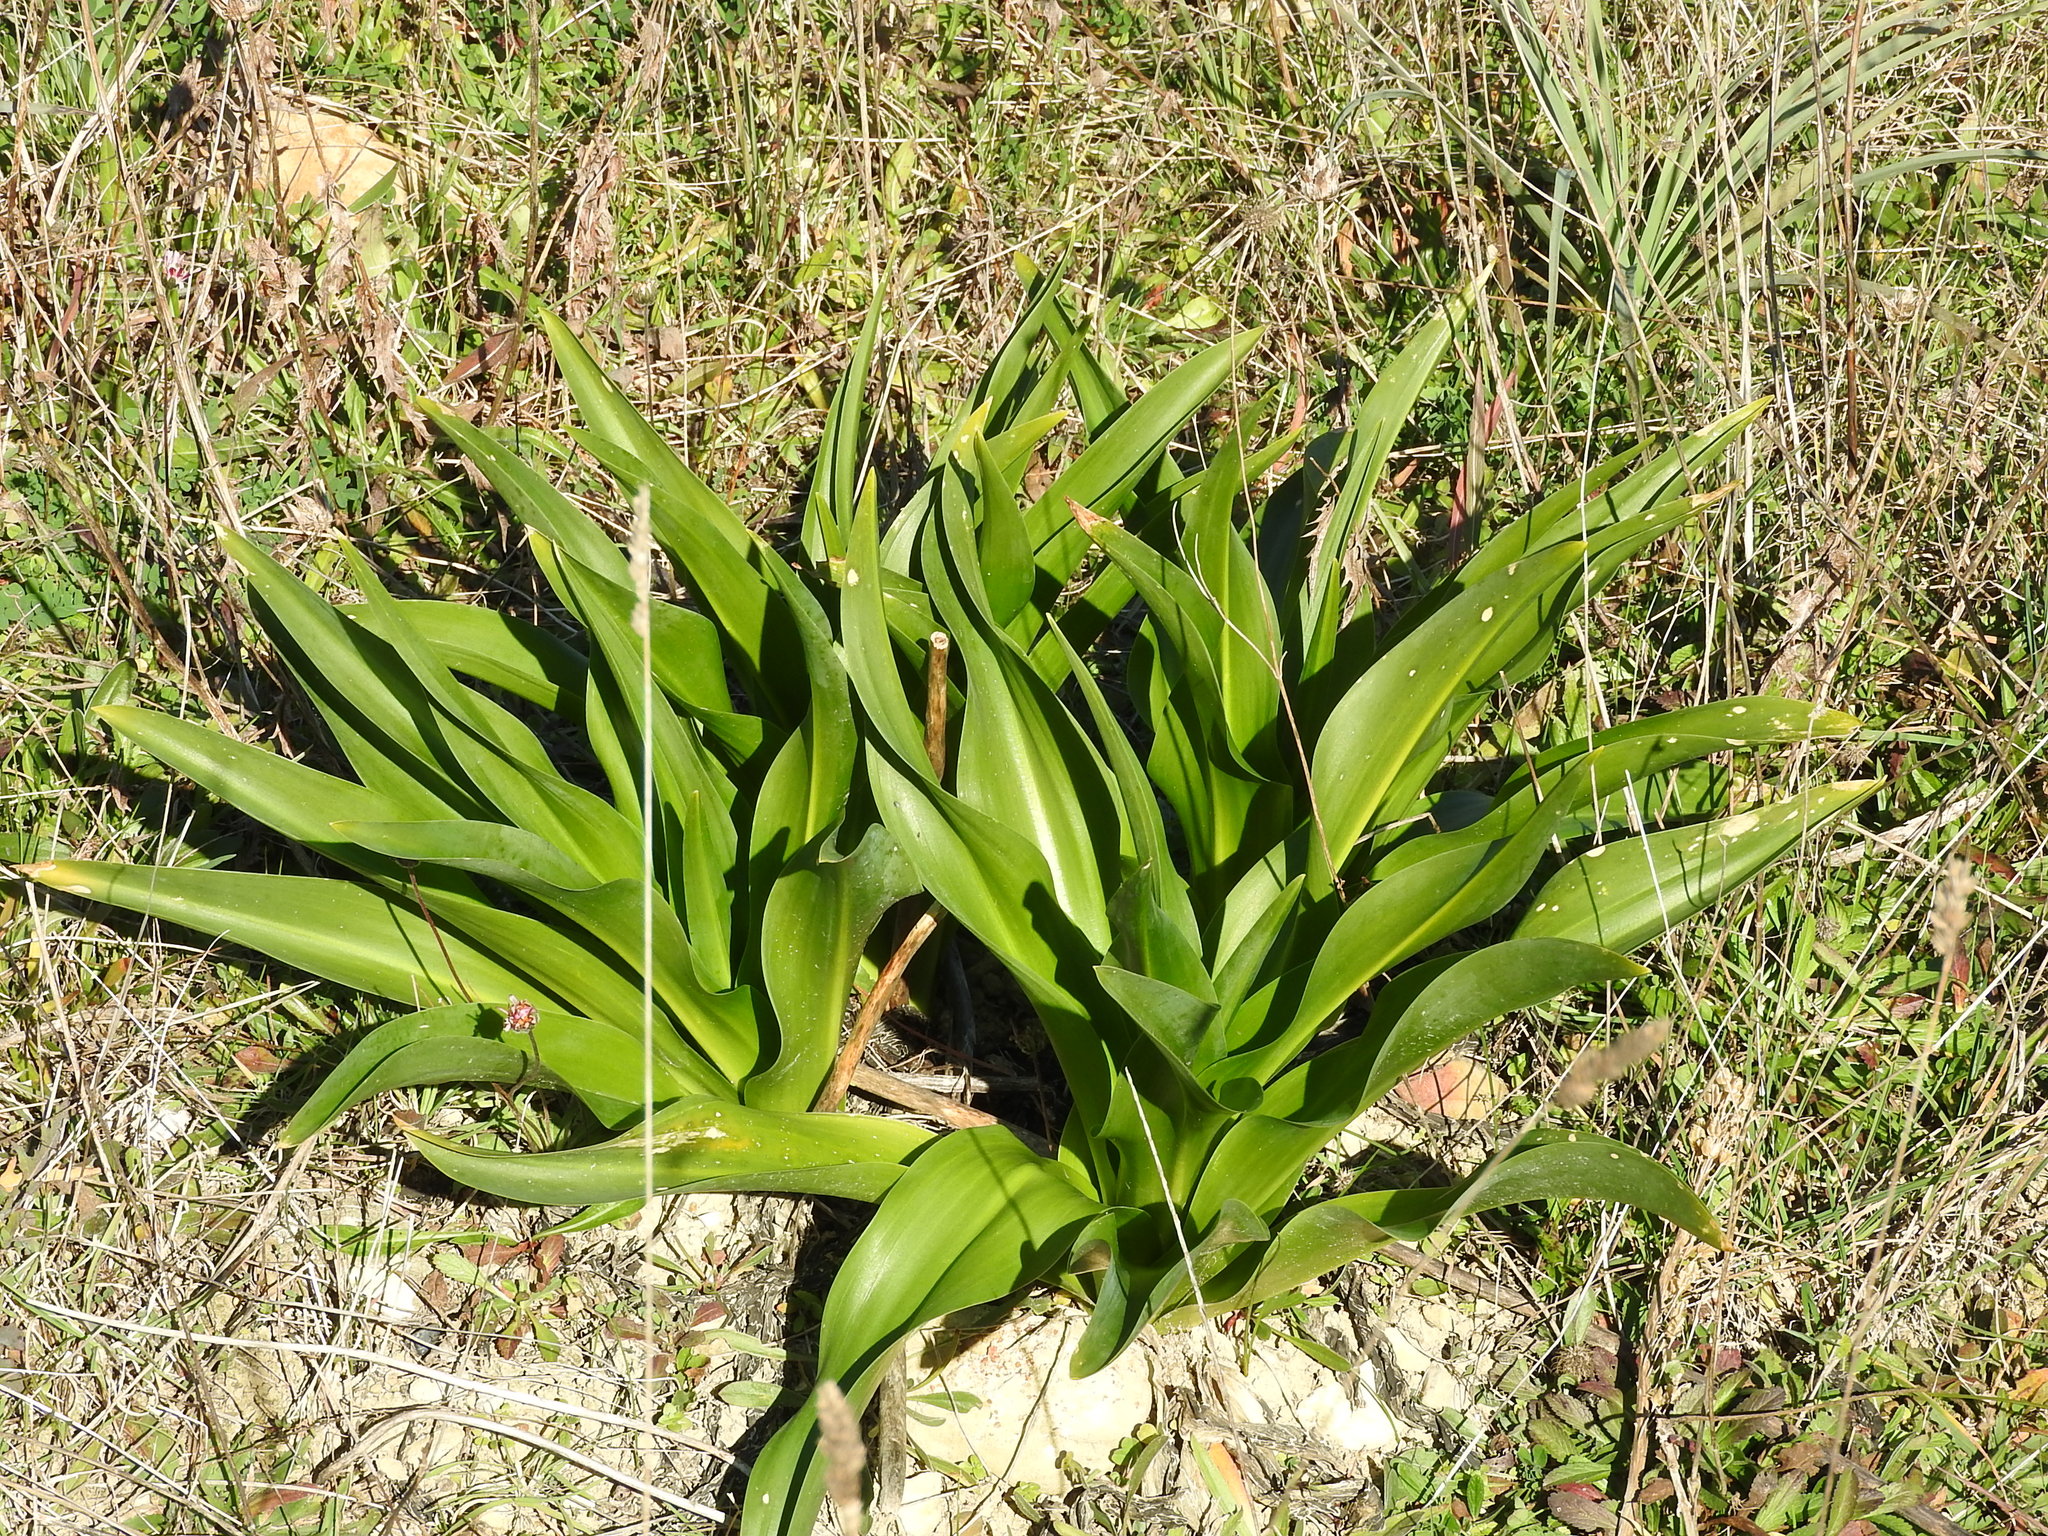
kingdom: Plantae
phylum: Tracheophyta
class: Liliopsida
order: Asparagales
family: Asparagaceae
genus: Drimia
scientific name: Drimia pancration
